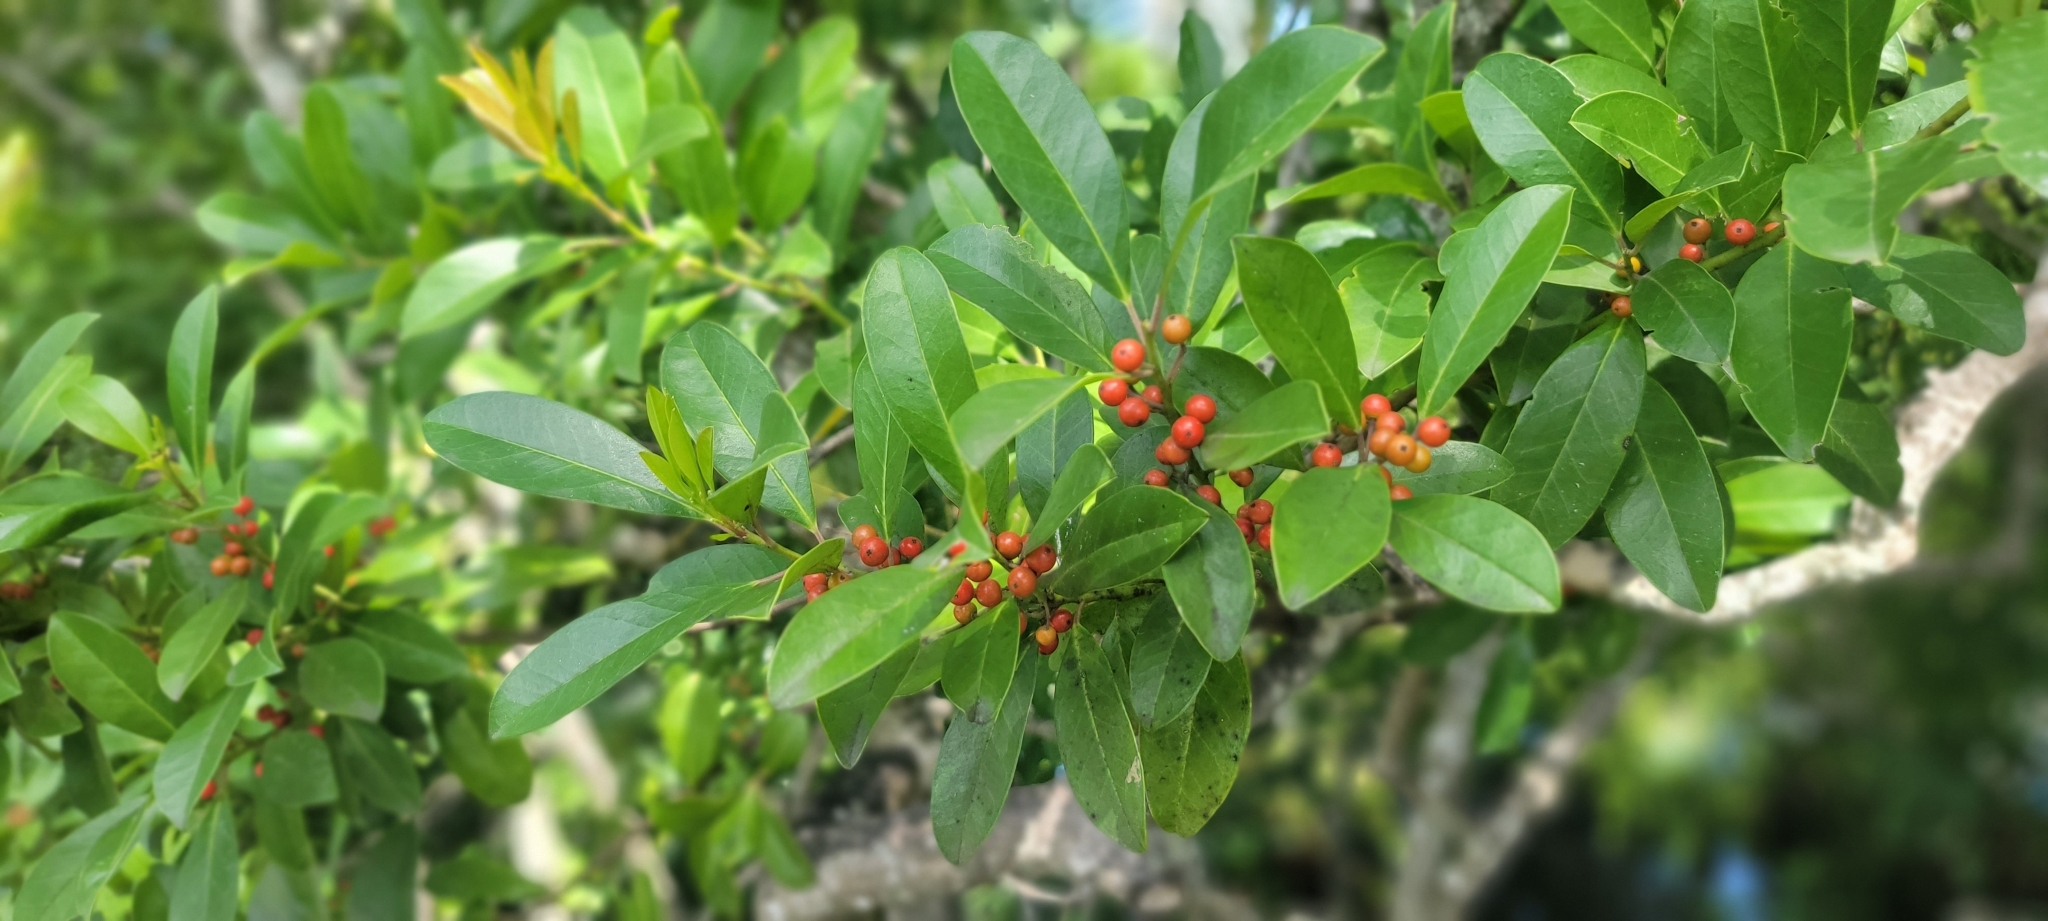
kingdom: Plantae
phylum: Tracheophyta
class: Magnoliopsida
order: Aquifoliales
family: Aquifoliaceae
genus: Ilex
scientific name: Ilex cassine
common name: Dahoon
